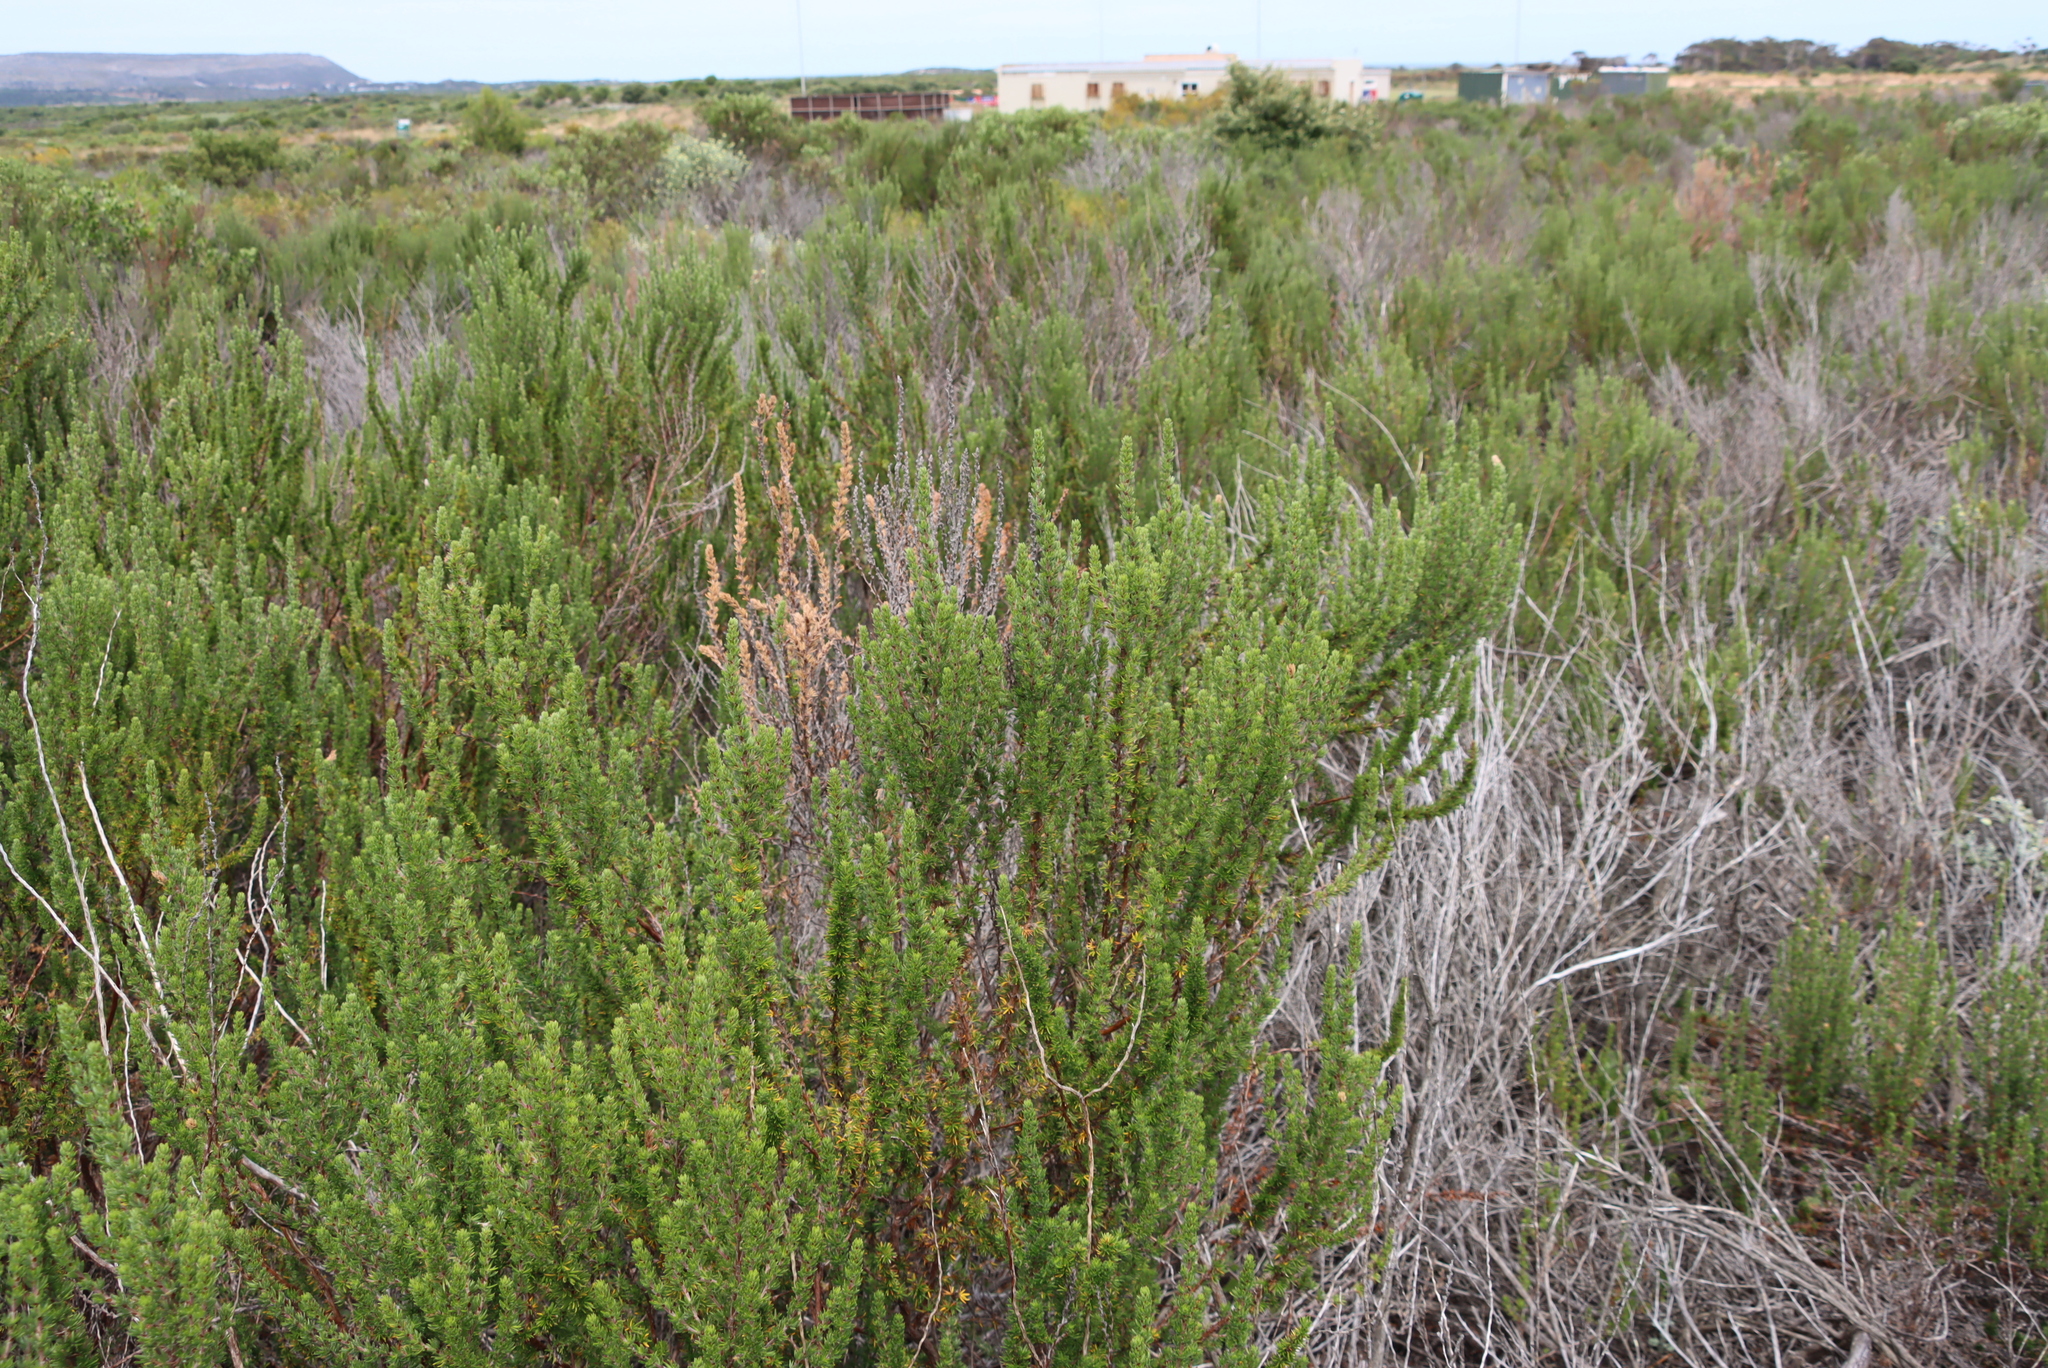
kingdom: Plantae
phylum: Tracheophyta
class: Magnoliopsida
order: Rosales
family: Rosaceae
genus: Cliffortia
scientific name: Cliffortia stricta
